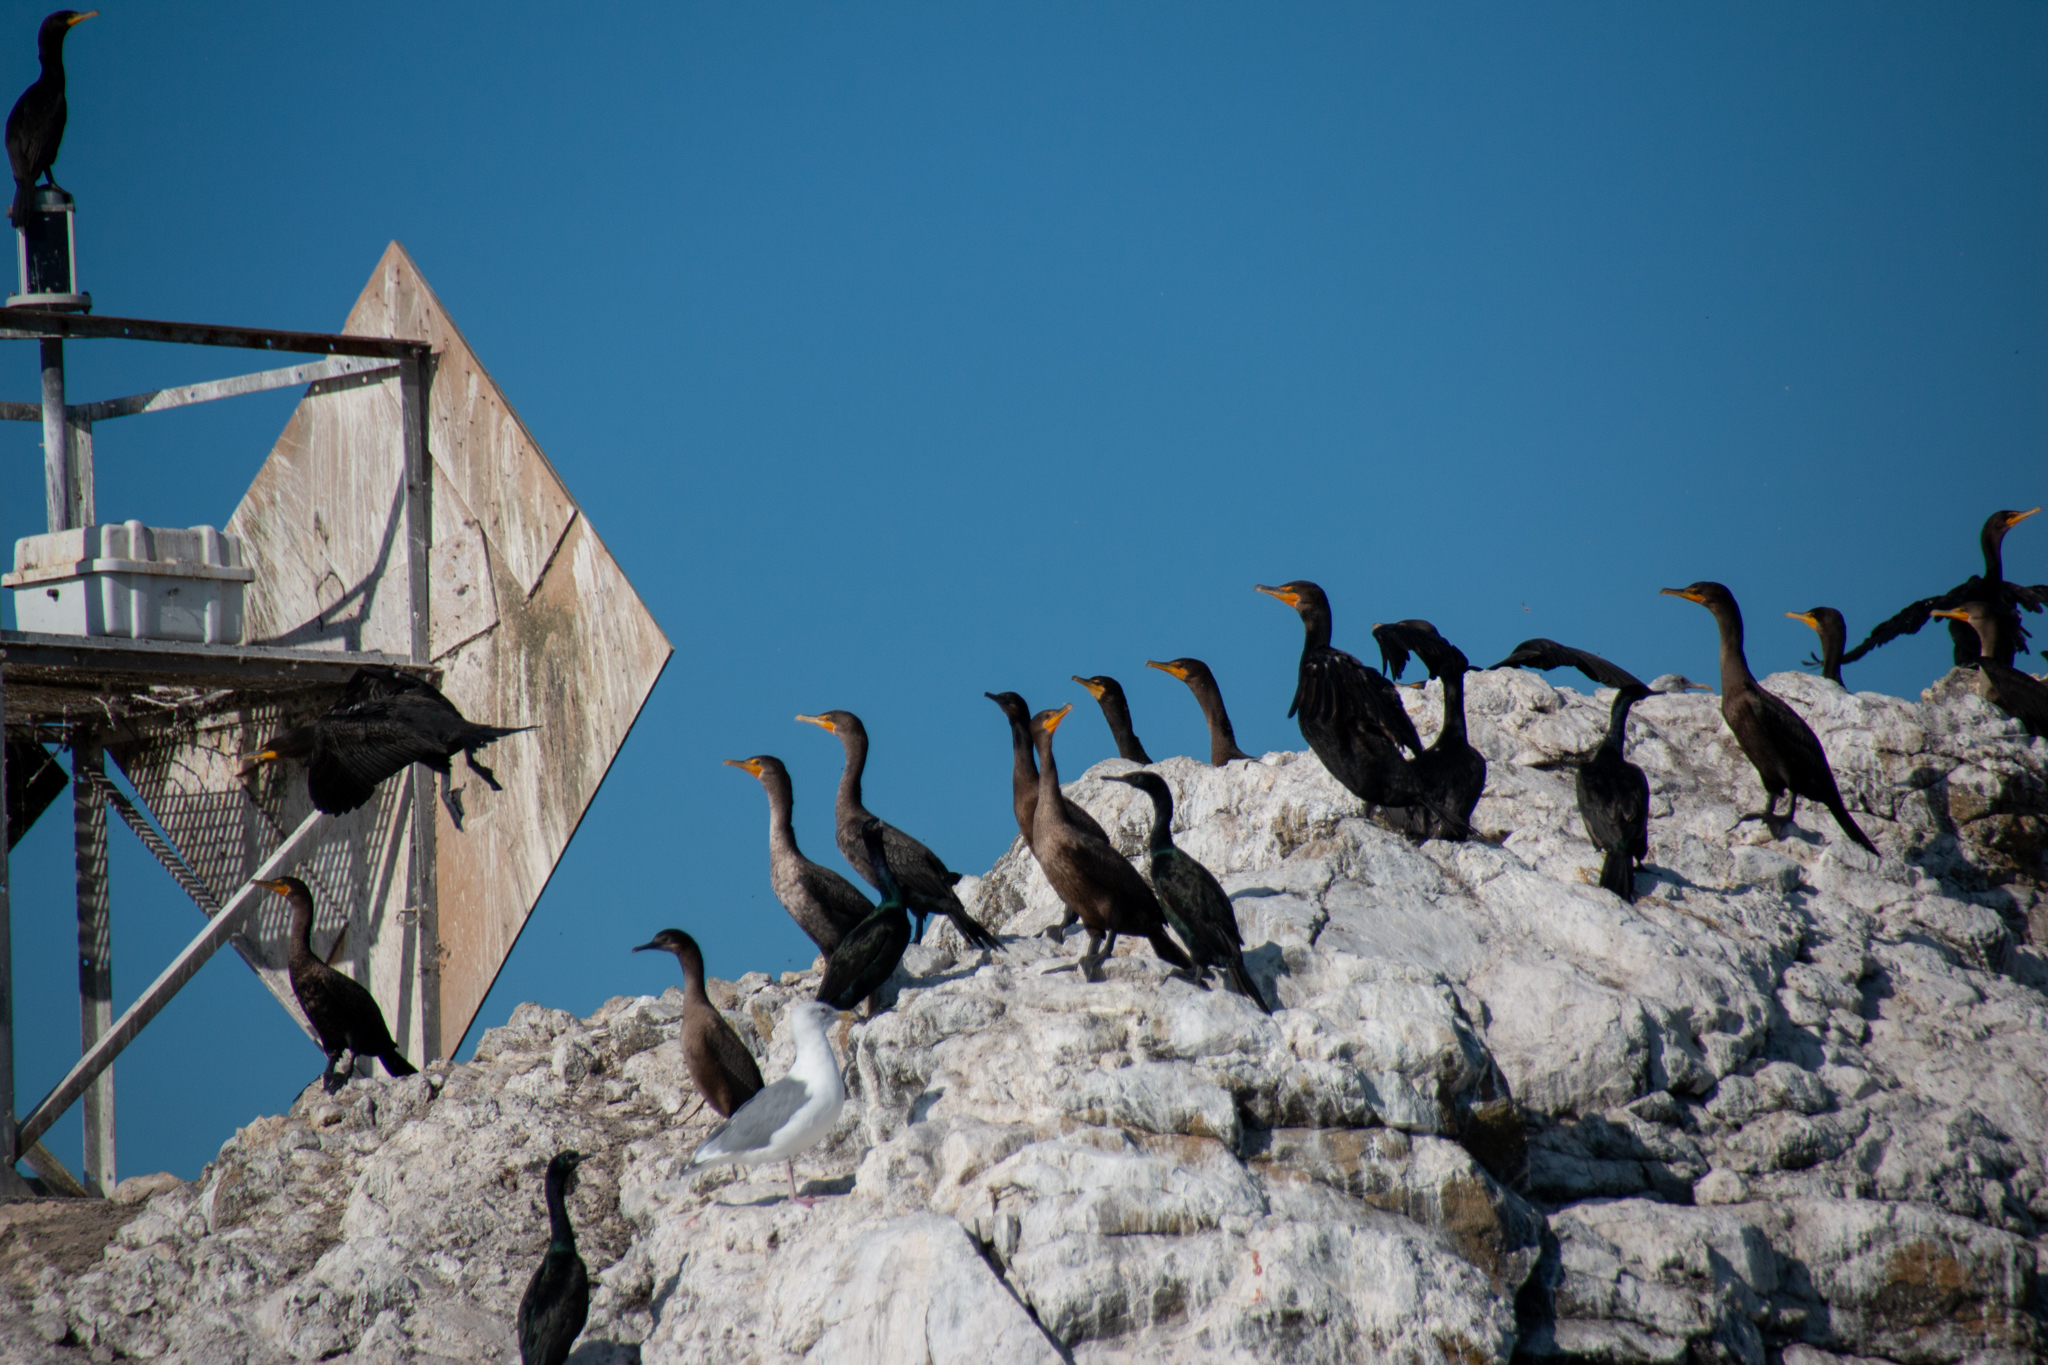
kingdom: Animalia
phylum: Chordata
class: Aves
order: Suliformes
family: Phalacrocoracidae
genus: Phalacrocorax
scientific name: Phalacrocorax pelagicus
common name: Pelagic cormorant
